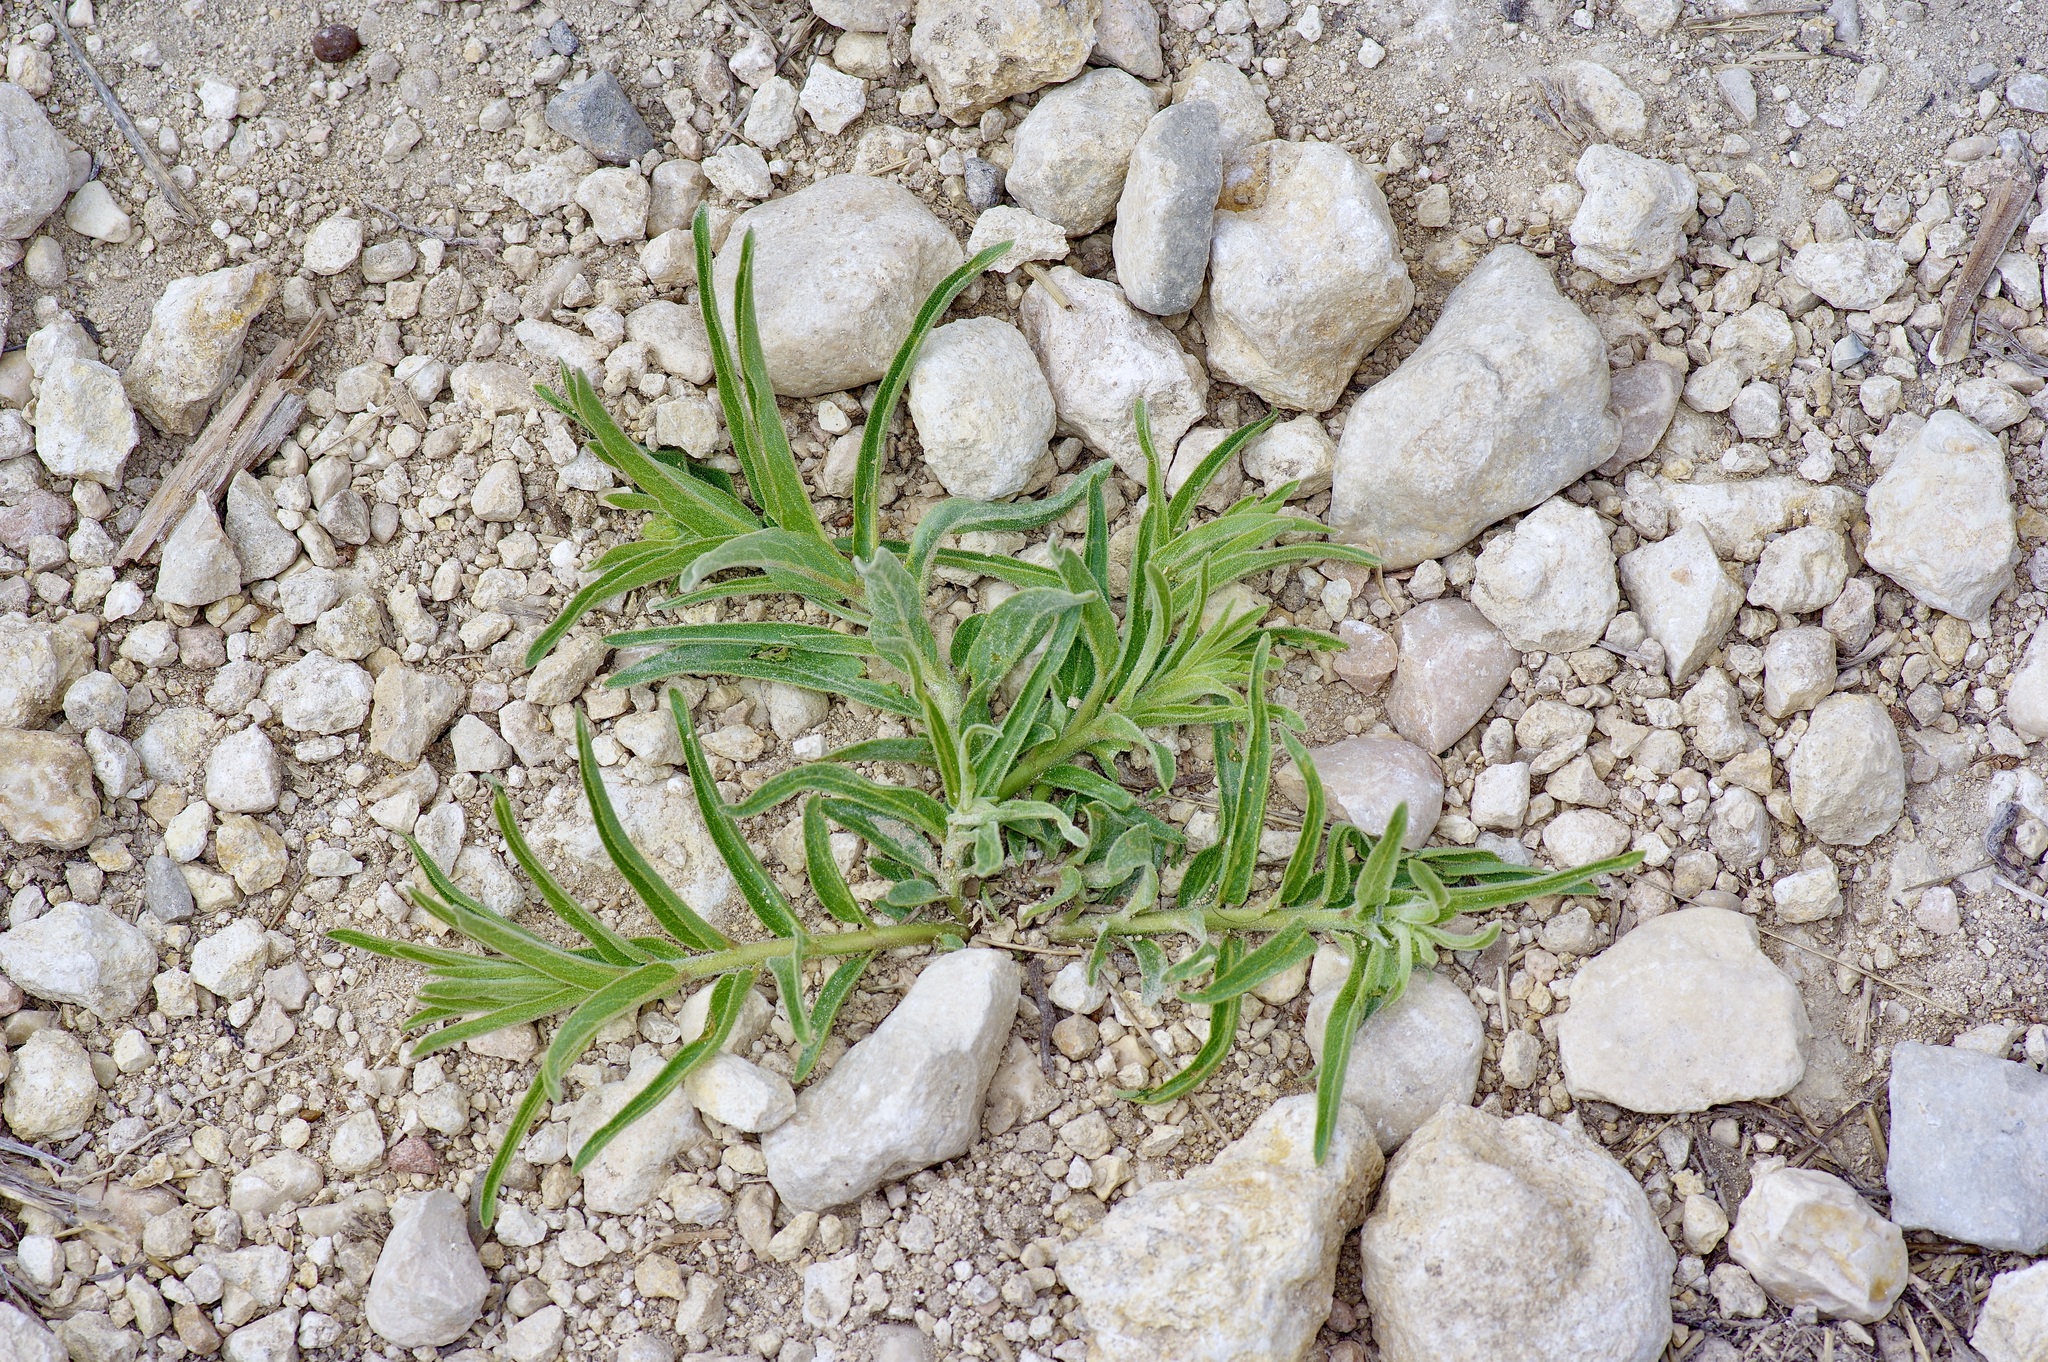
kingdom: Plantae
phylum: Tracheophyta
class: Magnoliopsida
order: Gentianales
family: Apocynaceae
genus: Asclepias
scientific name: Asclepias asperula
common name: Antelope horns
